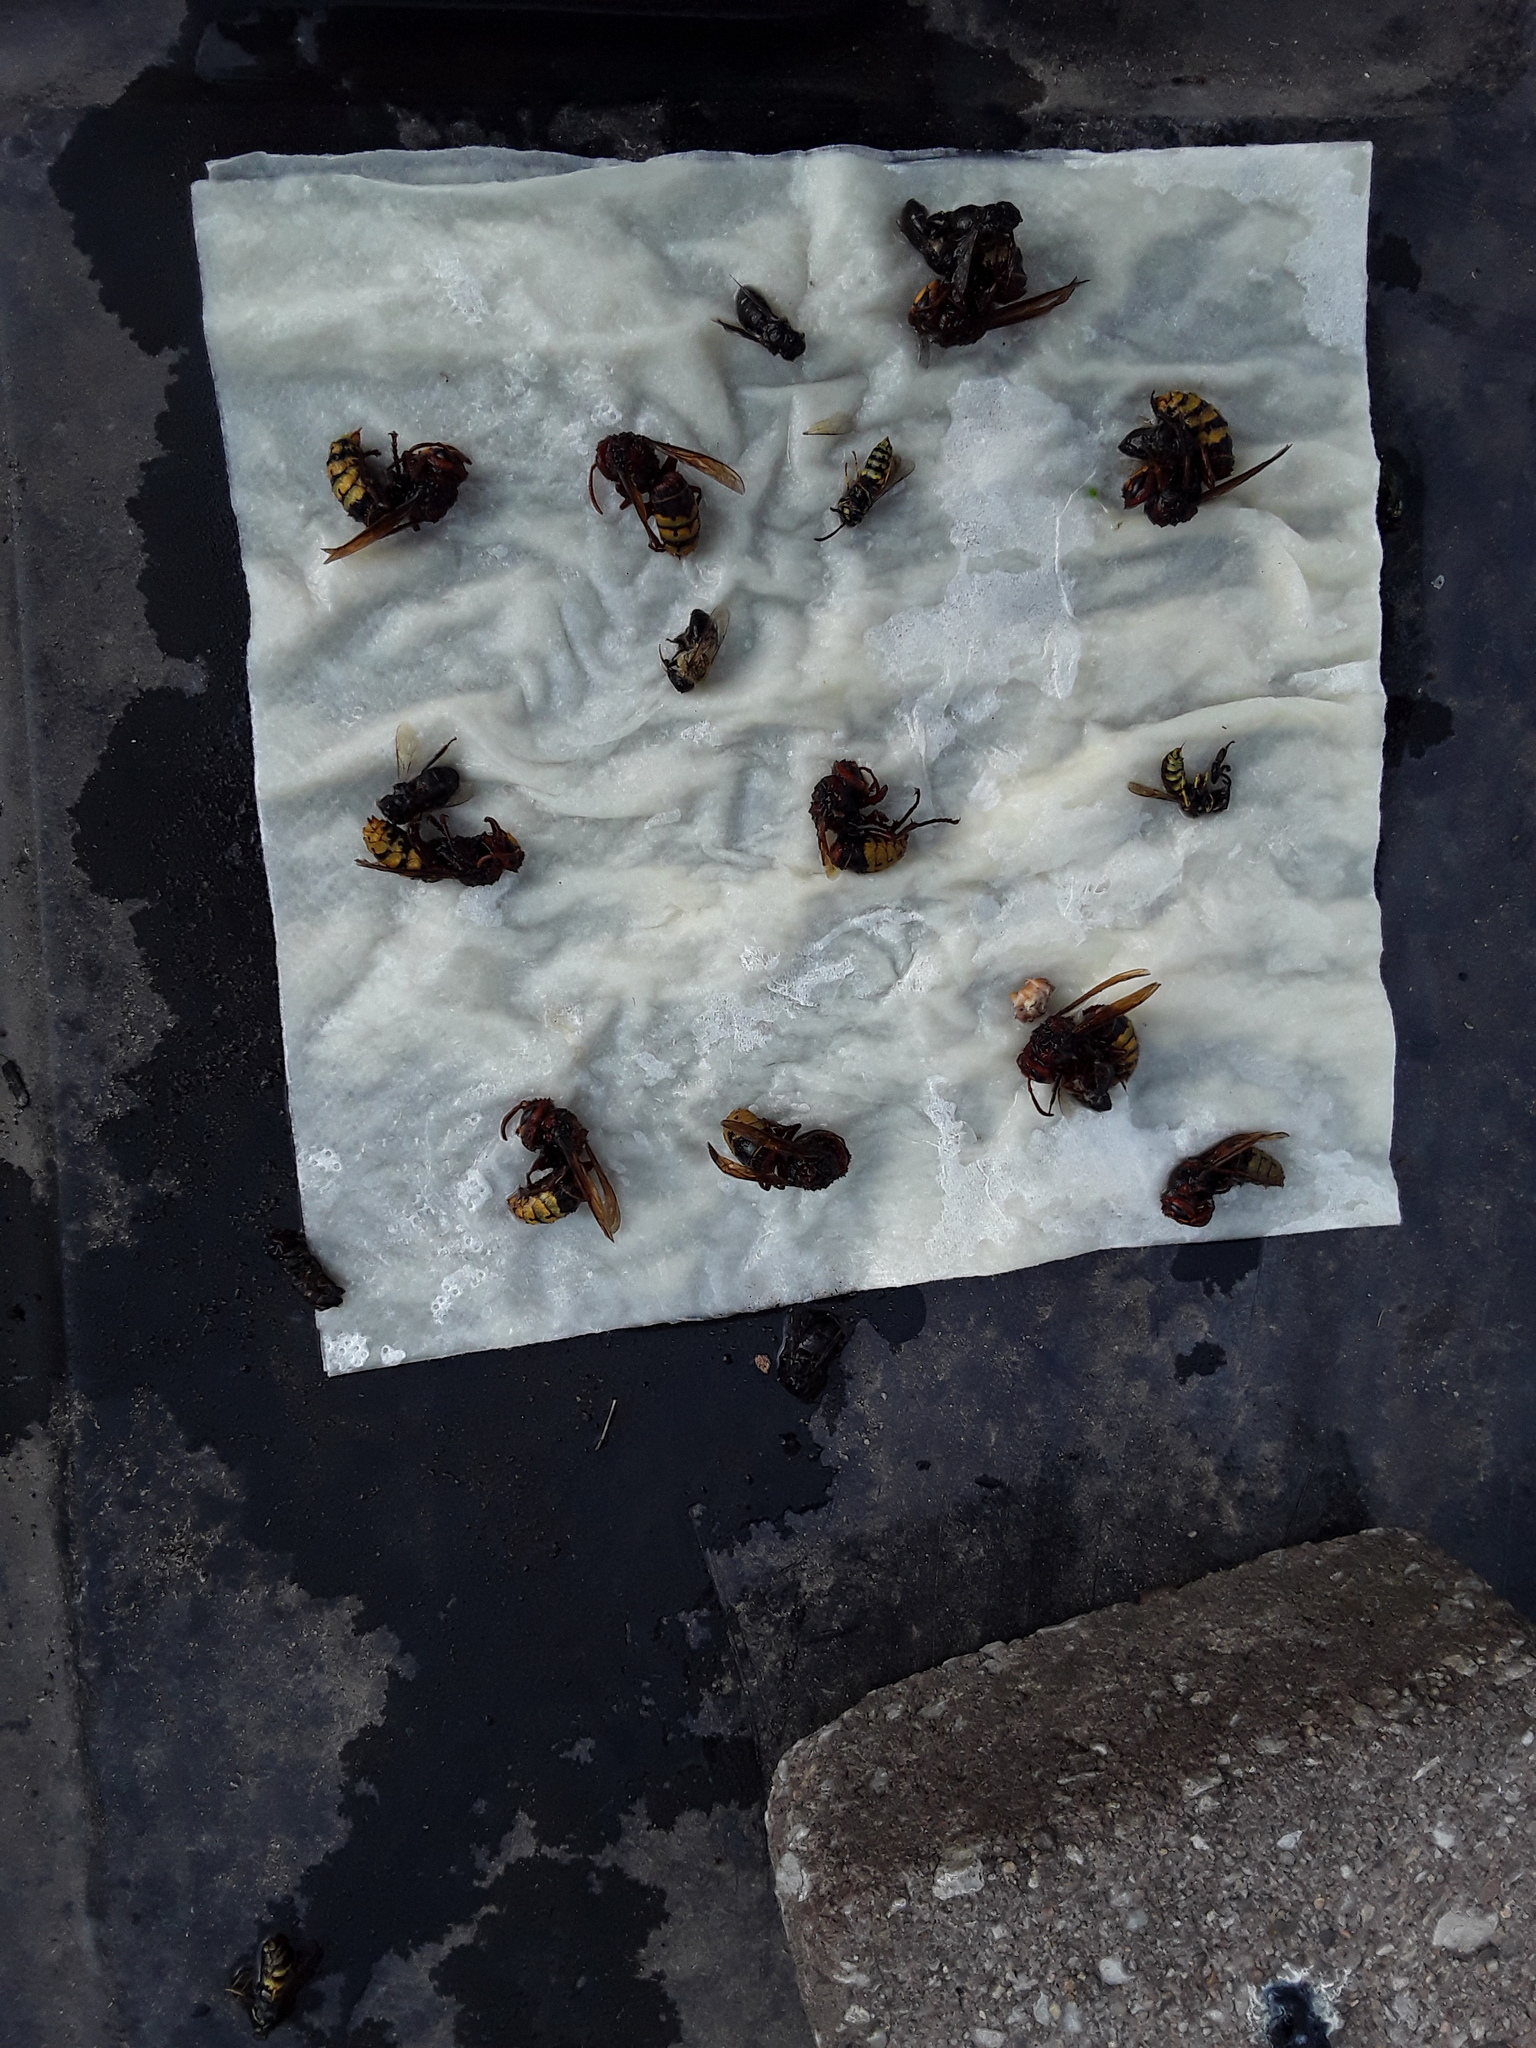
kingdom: Animalia
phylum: Arthropoda
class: Insecta
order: Hymenoptera
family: Vespidae
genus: Vespa
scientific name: Vespa crabro
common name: Hornet
